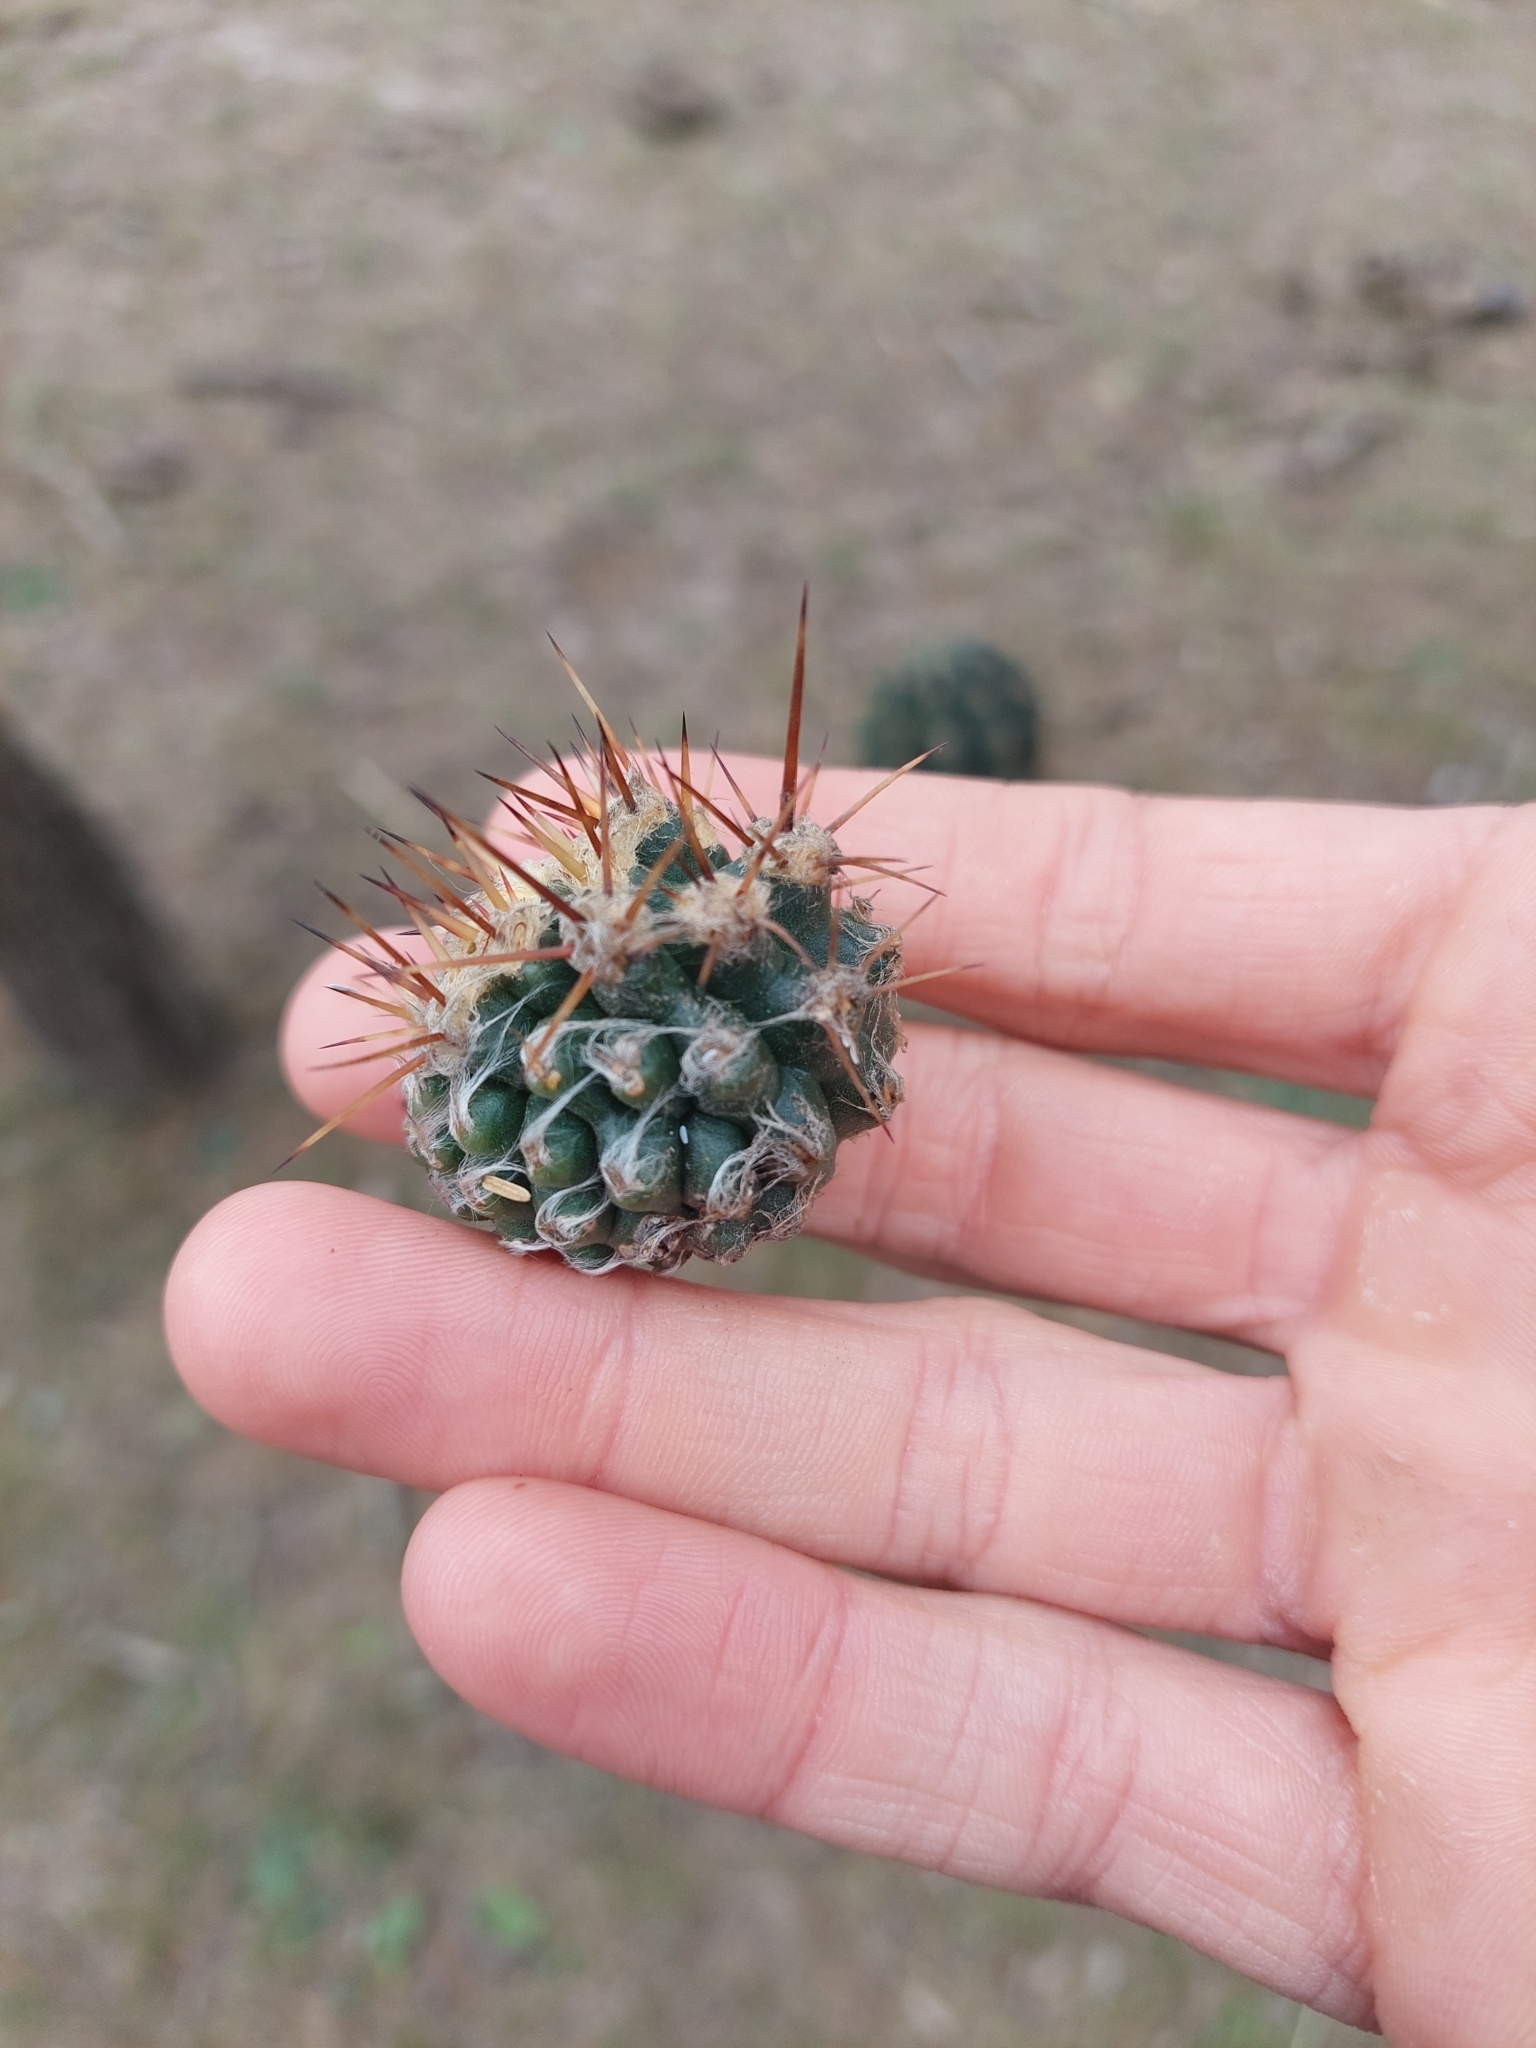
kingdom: Plantae
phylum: Tracheophyta
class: Magnoliopsida
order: Caryophyllales
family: Cactaceae
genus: Acanthocalycium
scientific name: Acanthocalycium rhodotrichum
